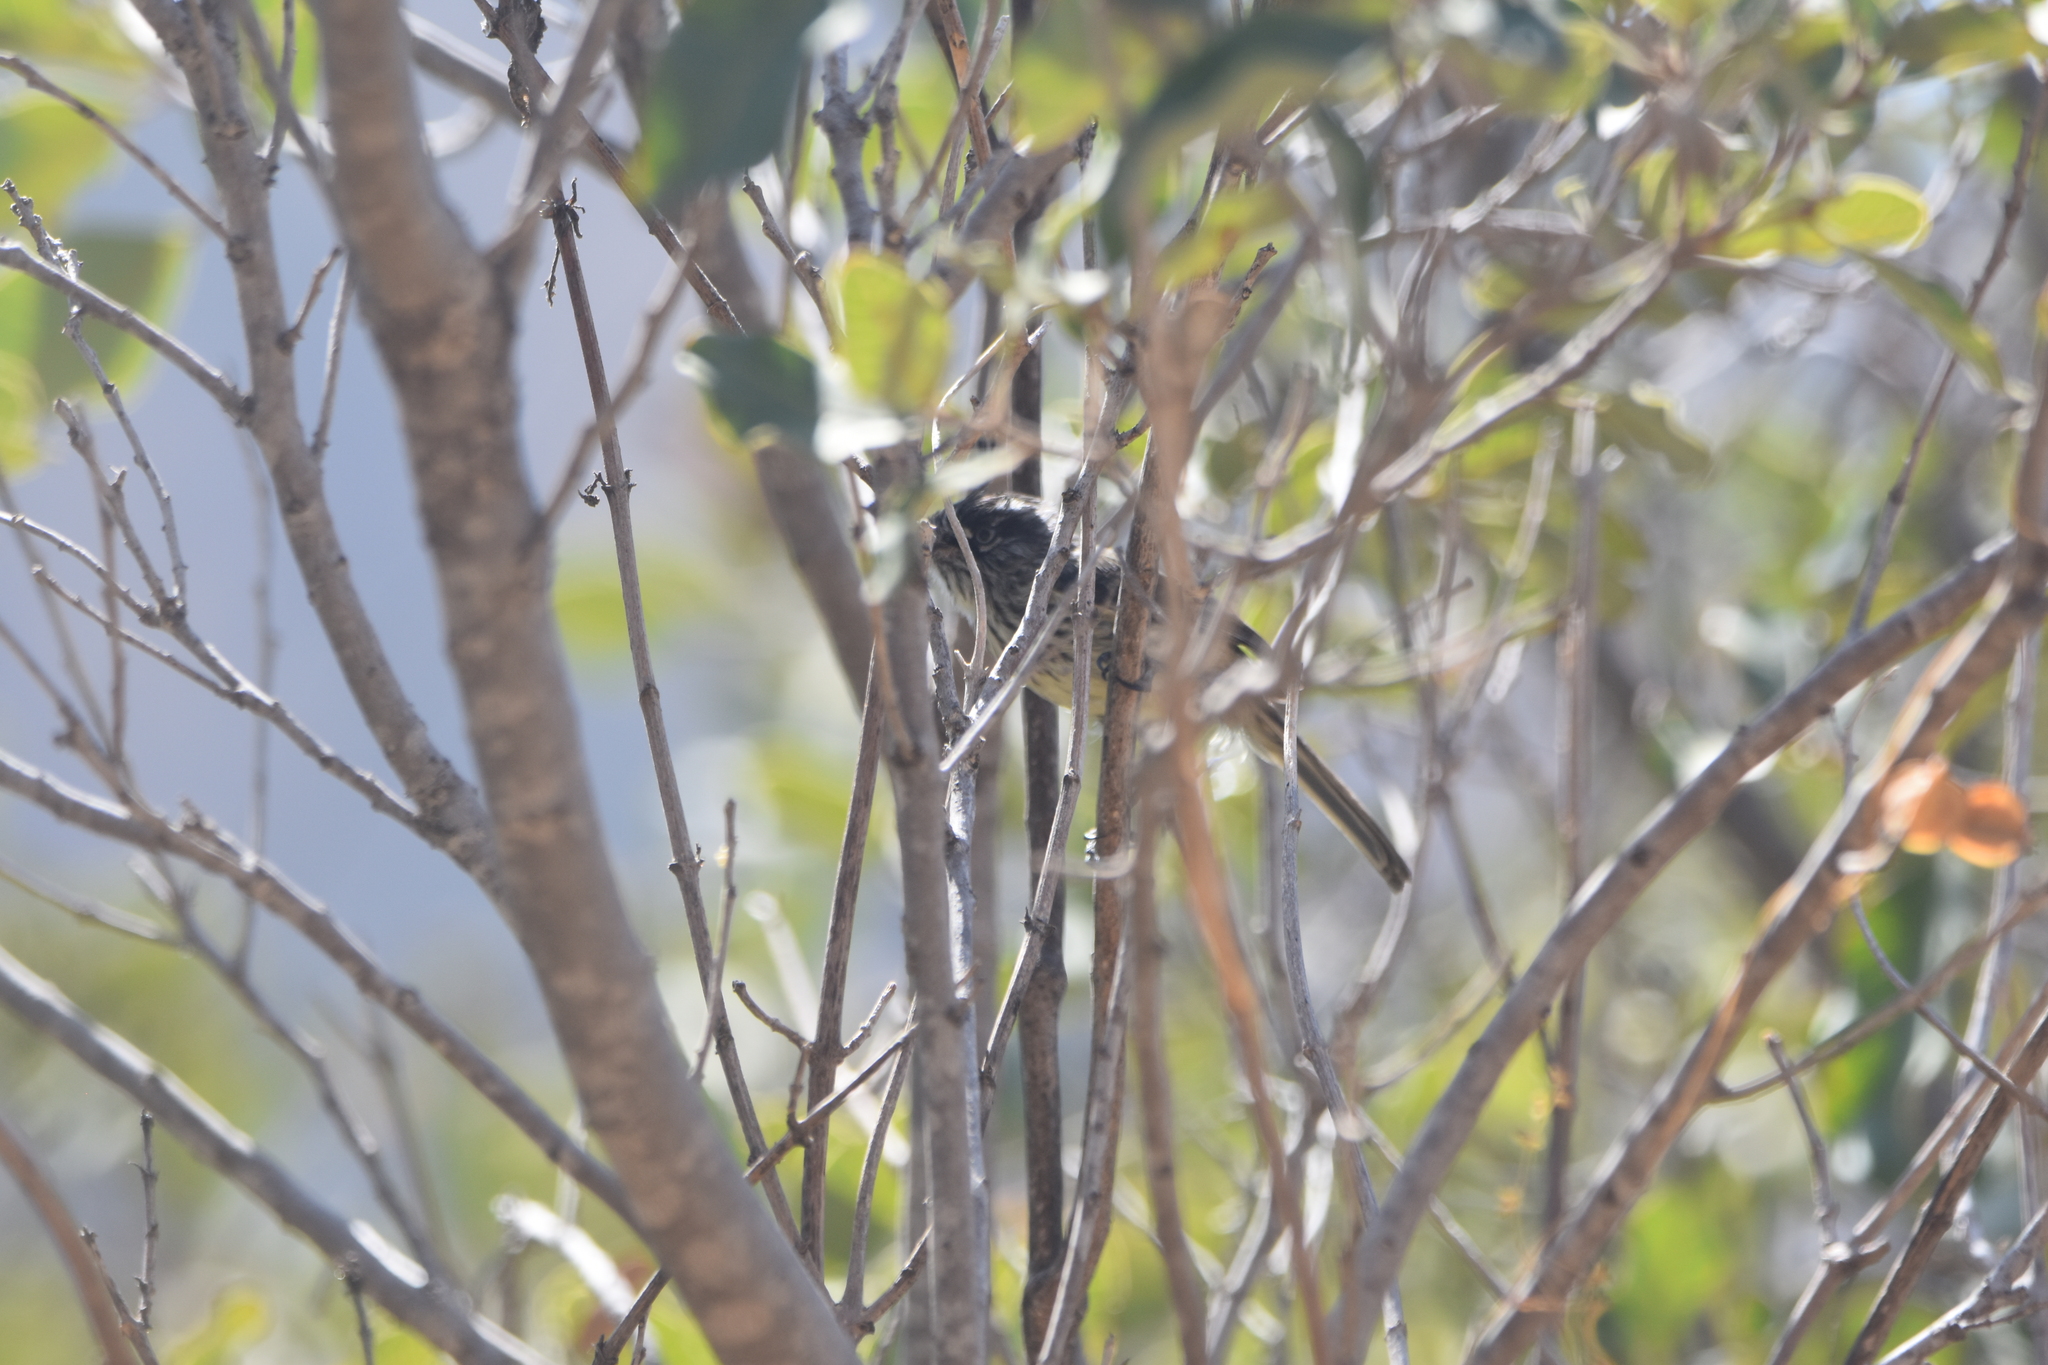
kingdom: Animalia
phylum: Chordata
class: Aves
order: Passeriformes
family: Tyrannidae
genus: Anairetes
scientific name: Anairetes parulus
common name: Tufted tit-tyrant
